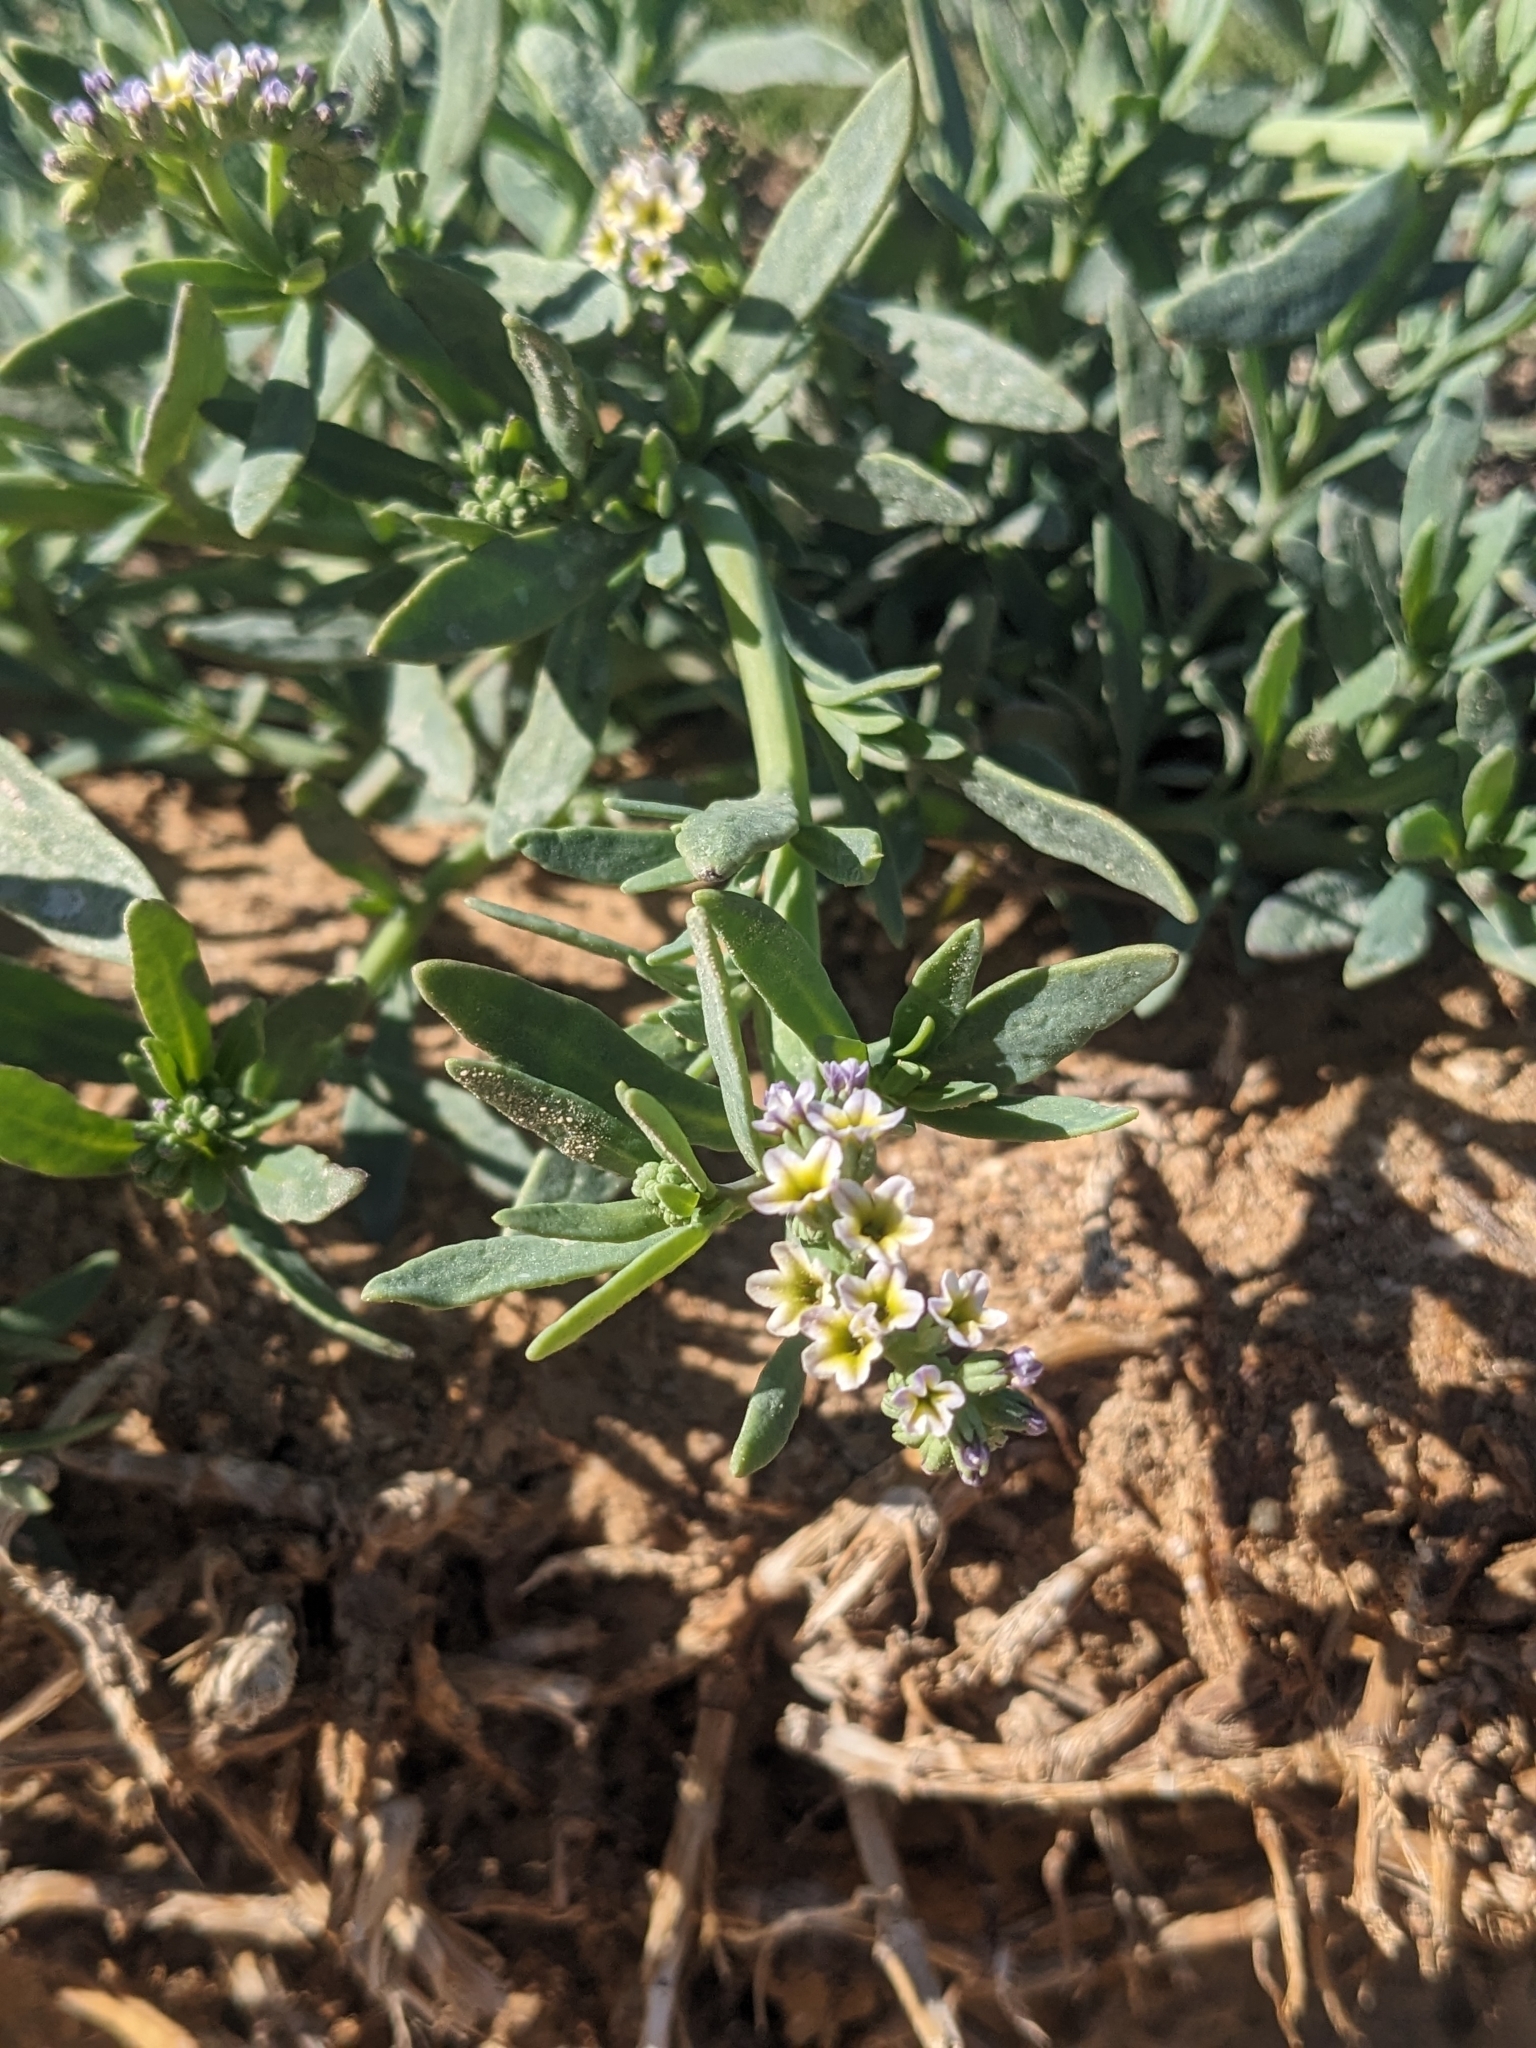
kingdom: Plantae
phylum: Tracheophyta
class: Magnoliopsida
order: Boraginales
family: Heliotropiaceae
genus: Heliotropium
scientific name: Heliotropium curassavicum
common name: Seaside heliotrope
